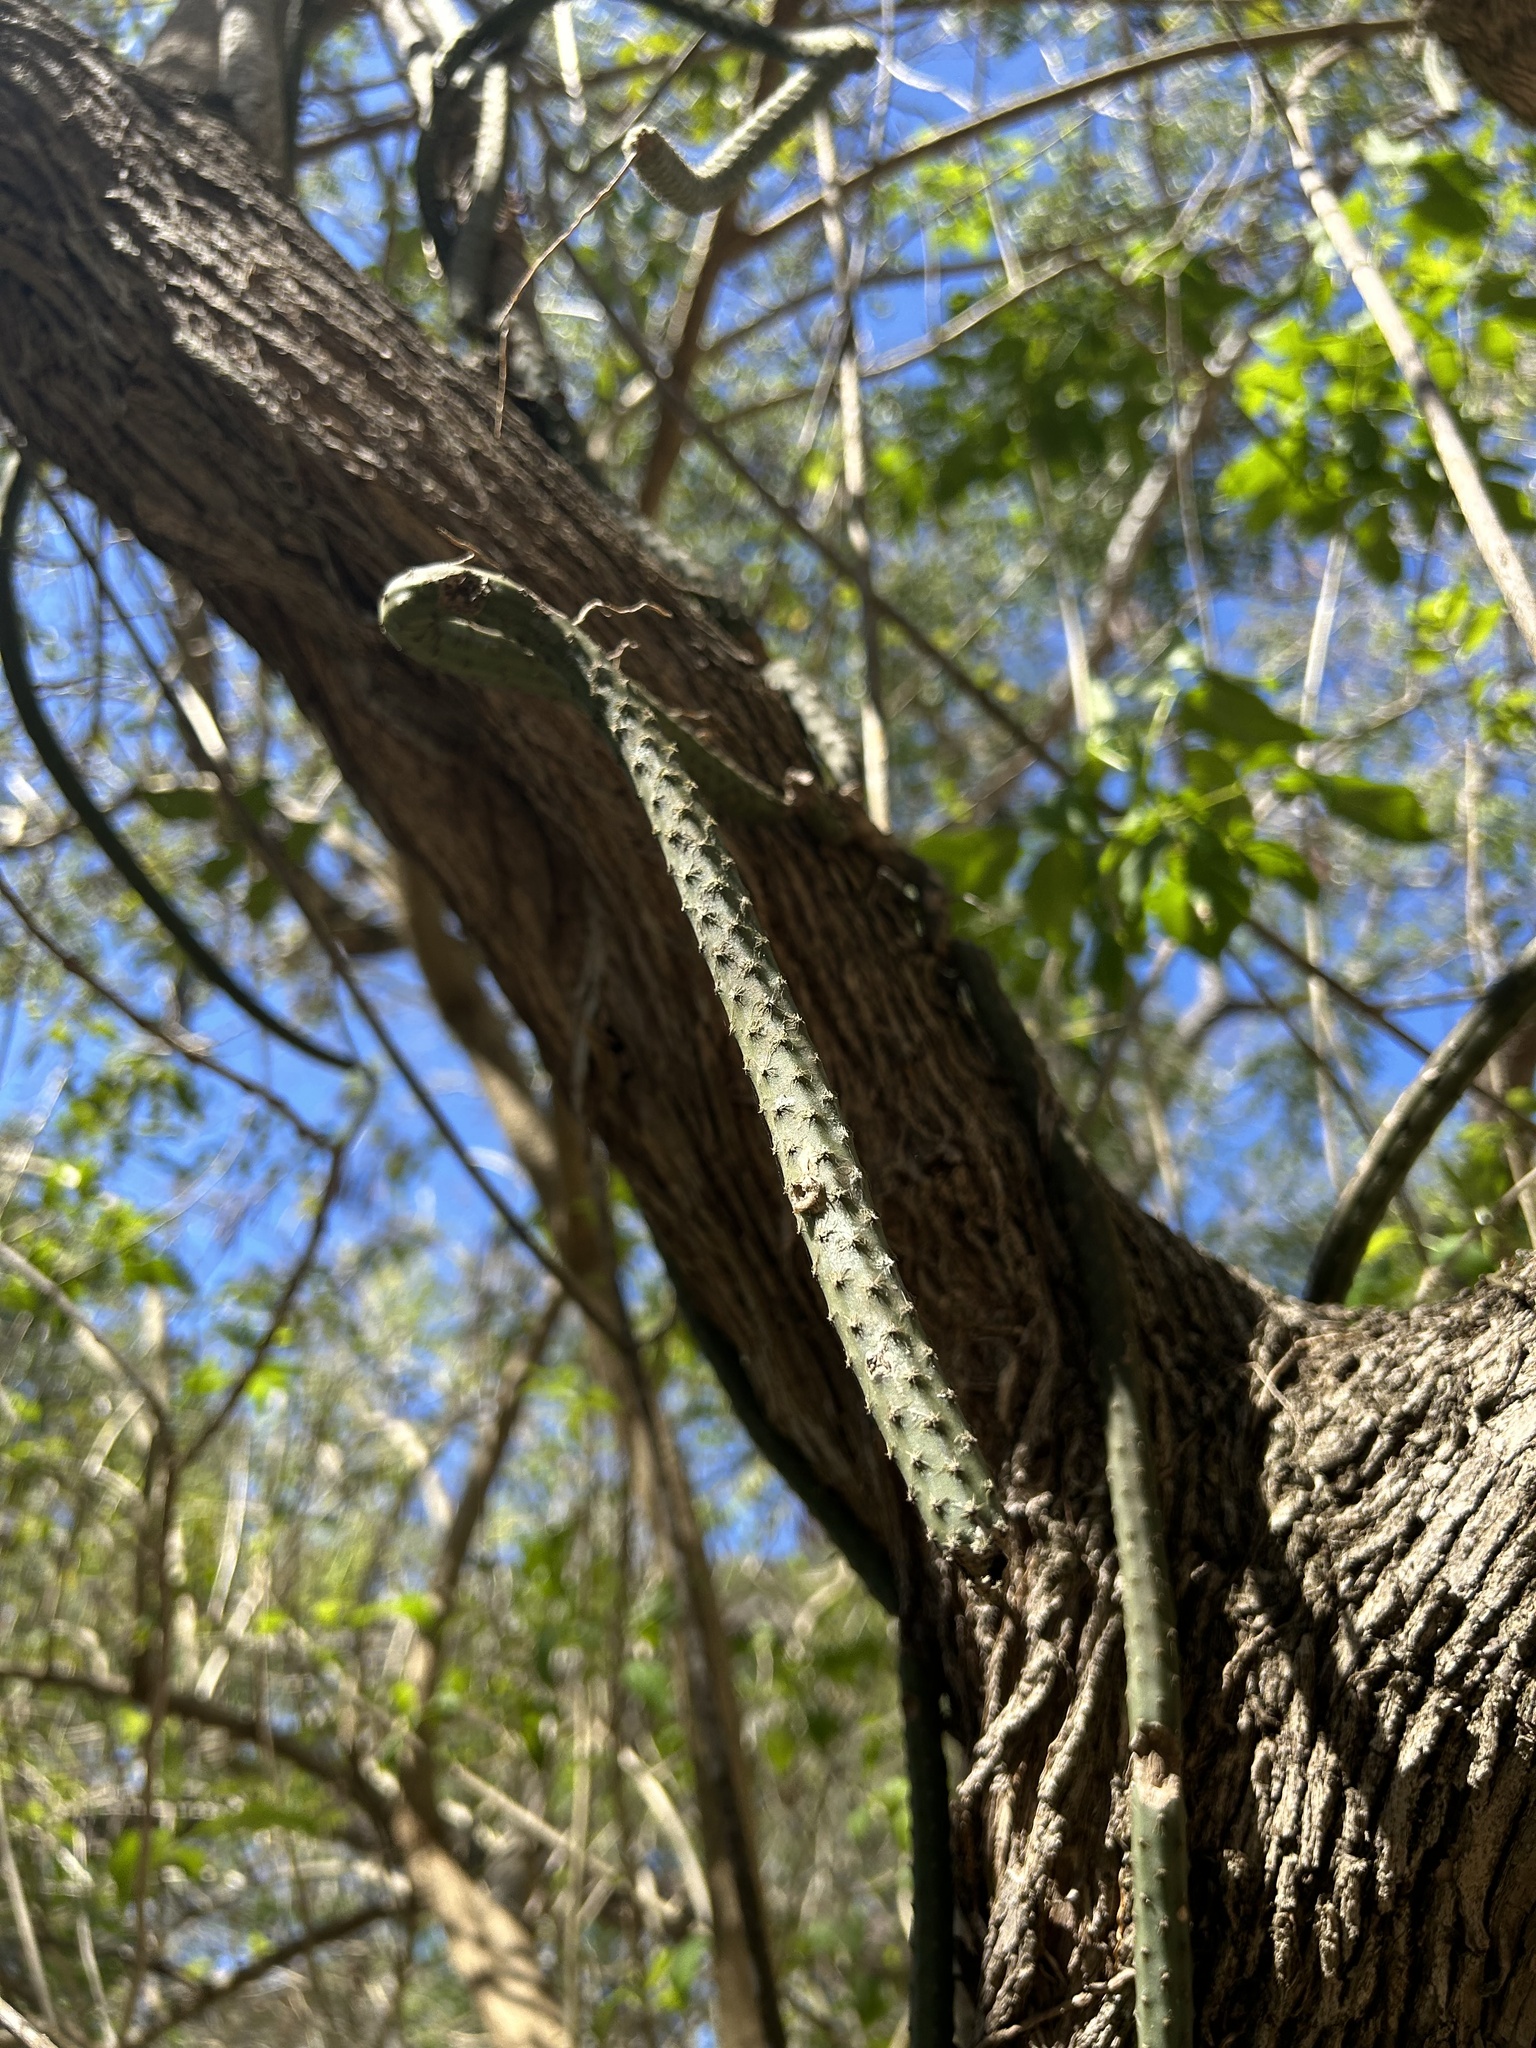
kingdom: Plantae
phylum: Tracheophyta
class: Magnoliopsida
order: Caryophyllales
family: Cactaceae
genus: Selenicereus
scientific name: Selenicereus grandiflorus
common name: Queen of the night
